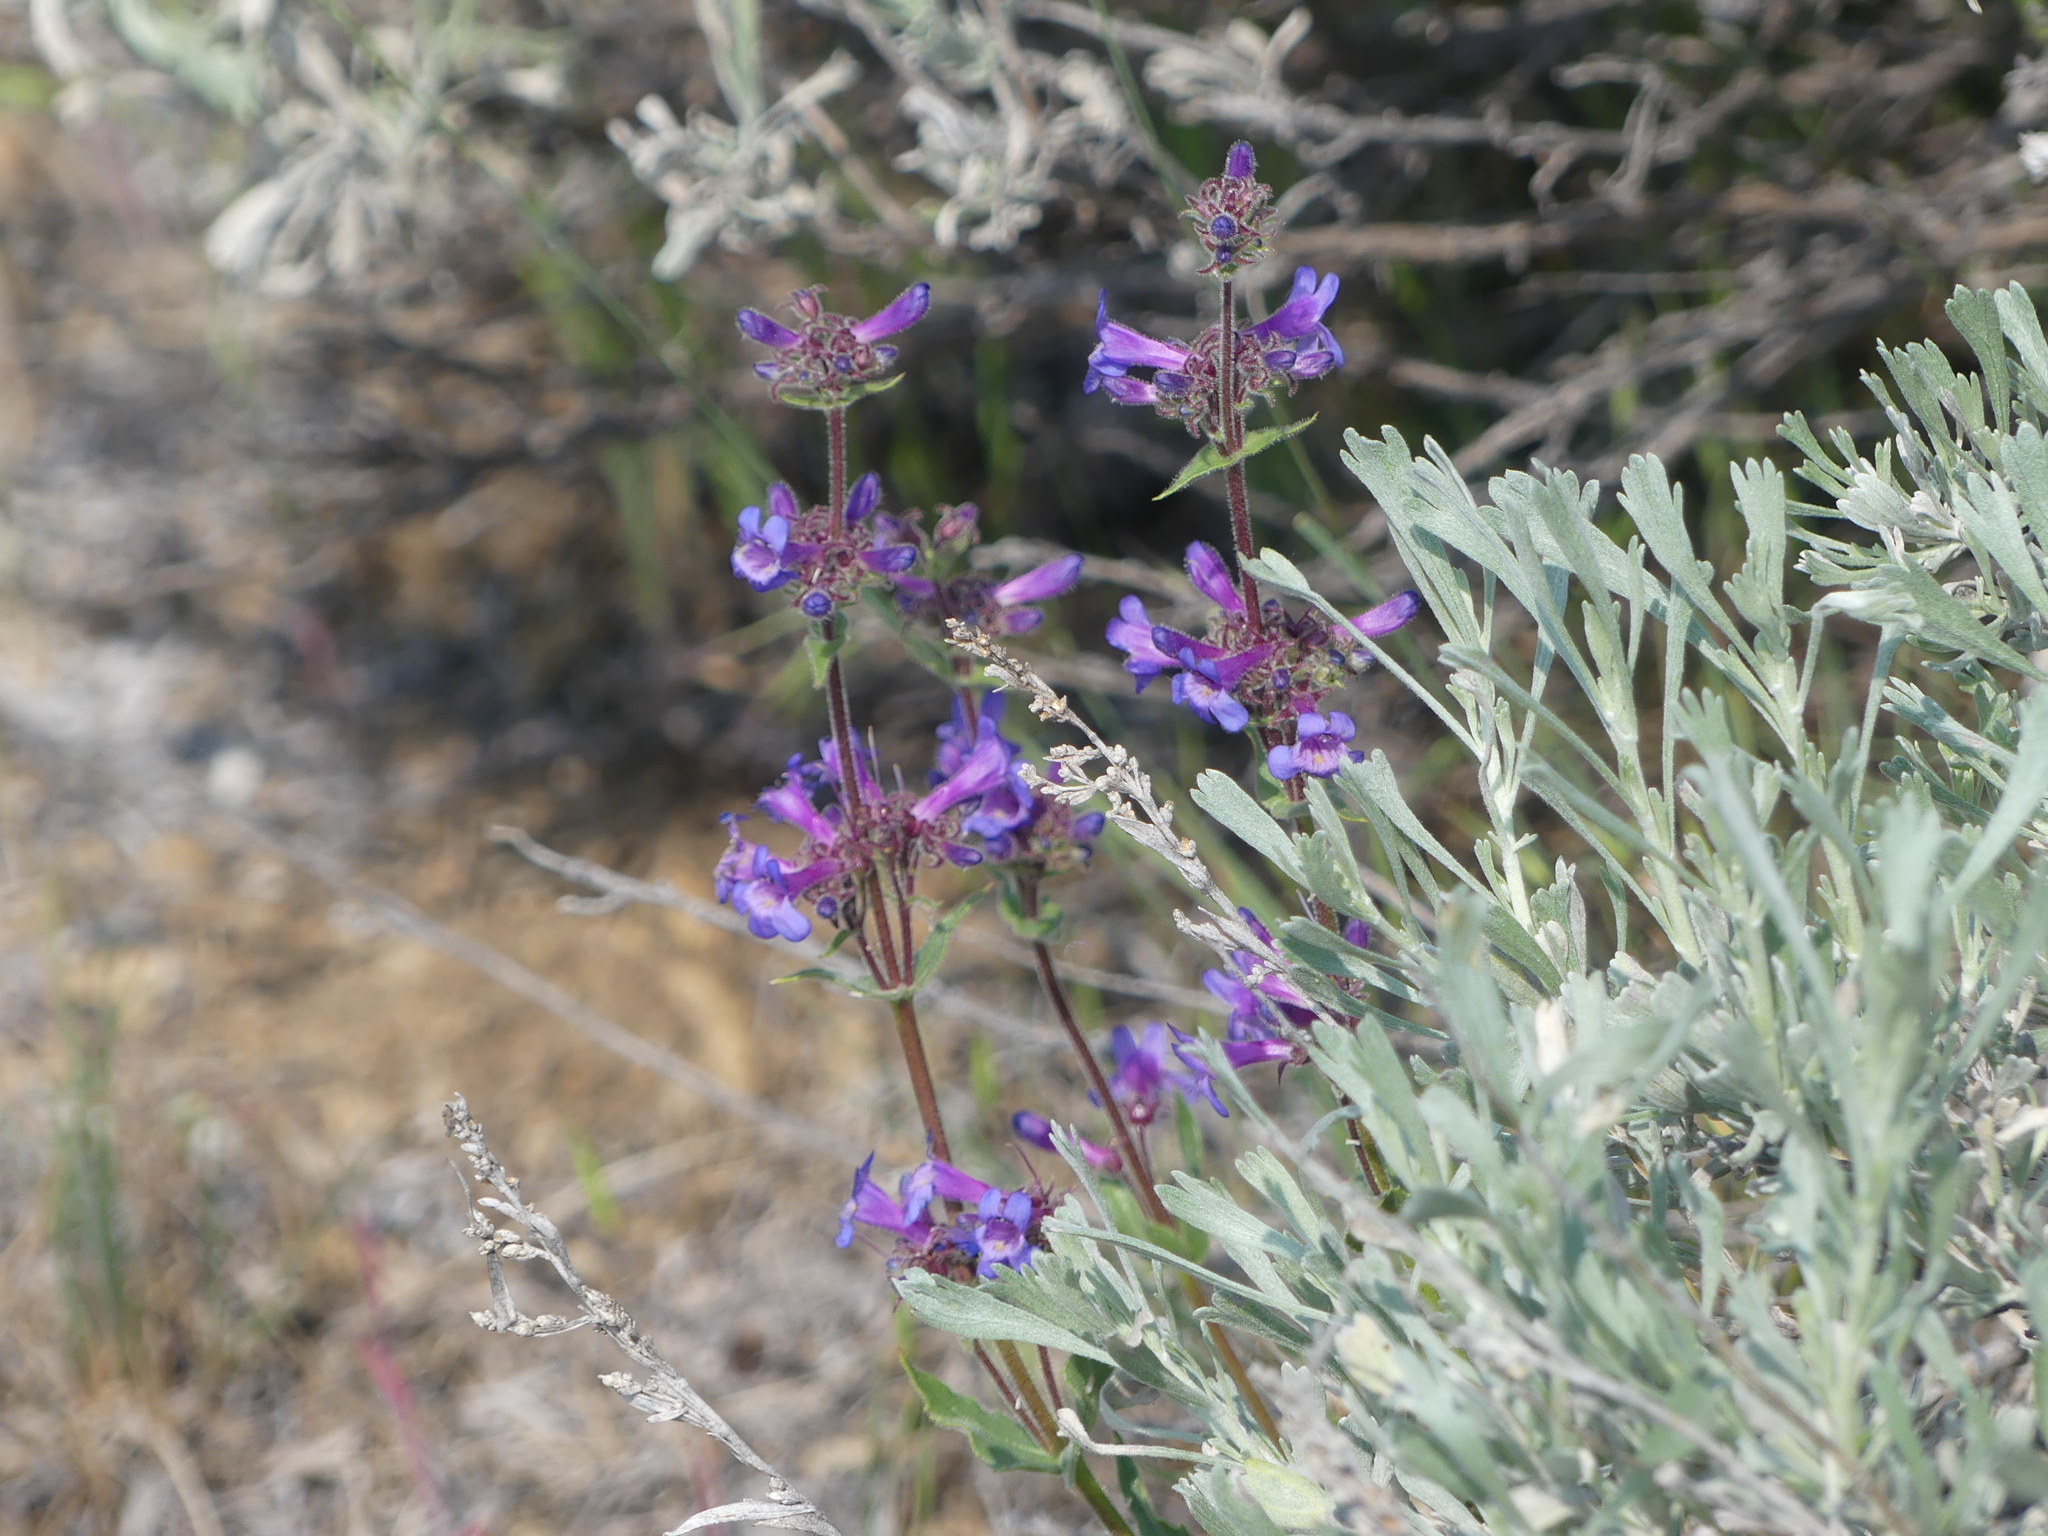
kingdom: Plantae
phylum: Tracheophyta
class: Magnoliopsida
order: Lamiales
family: Plantaginaceae
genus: Penstemon
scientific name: Penstemon pruinosus
